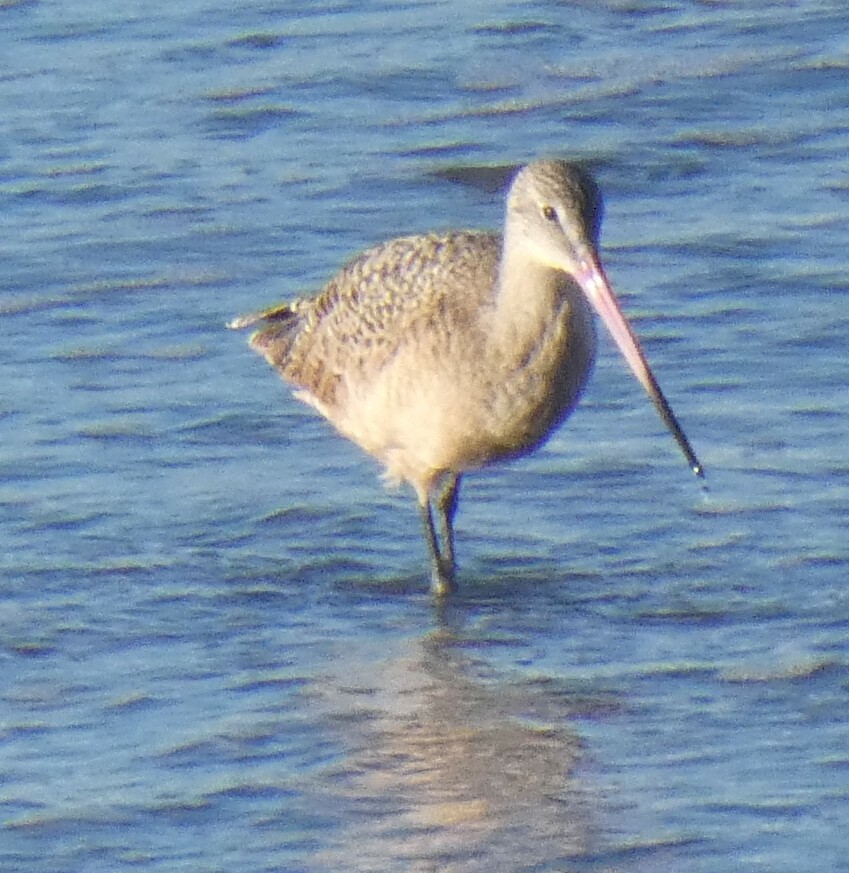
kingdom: Animalia
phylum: Chordata
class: Aves
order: Charadriiformes
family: Scolopacidae
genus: Limosa
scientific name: Limosa fedoa
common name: Marbled godwit
